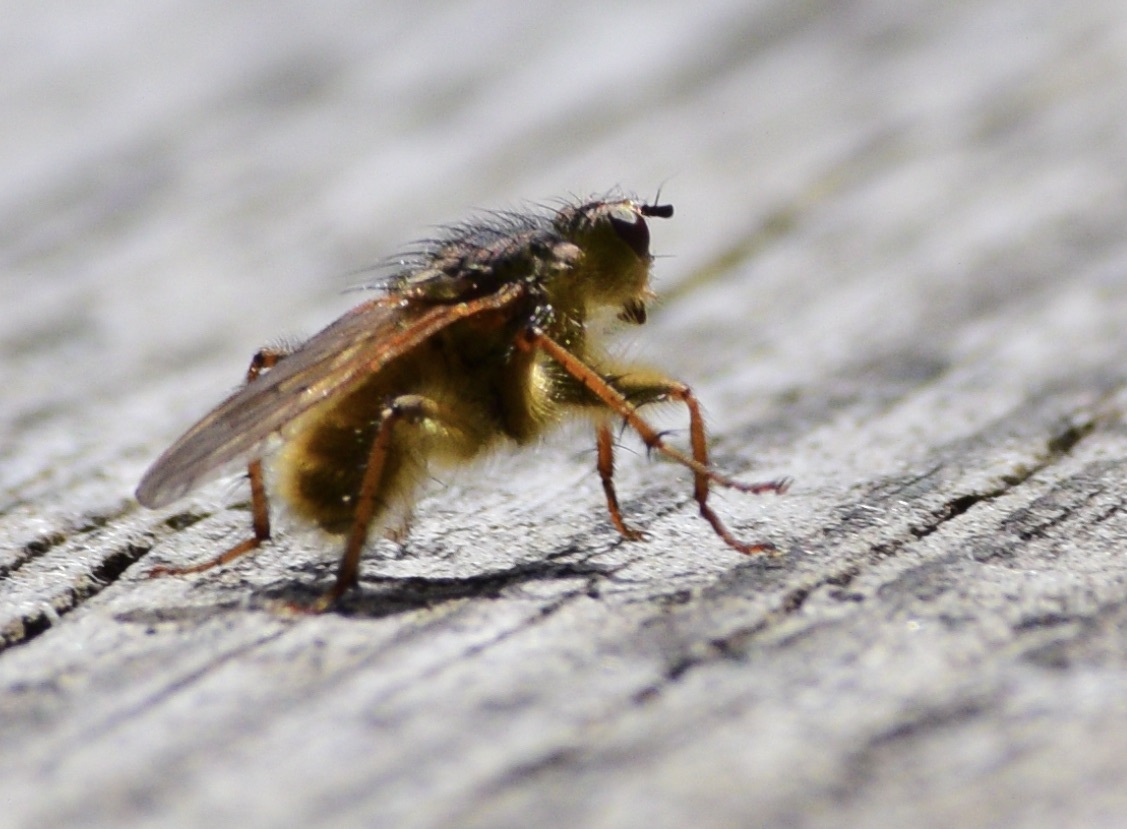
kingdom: Animalia
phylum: Arthropoda
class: Insecta
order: Diptera
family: Scathophagidae
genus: Scathophaga
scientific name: Scathophaga stercoraria
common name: Yellow dung fly
